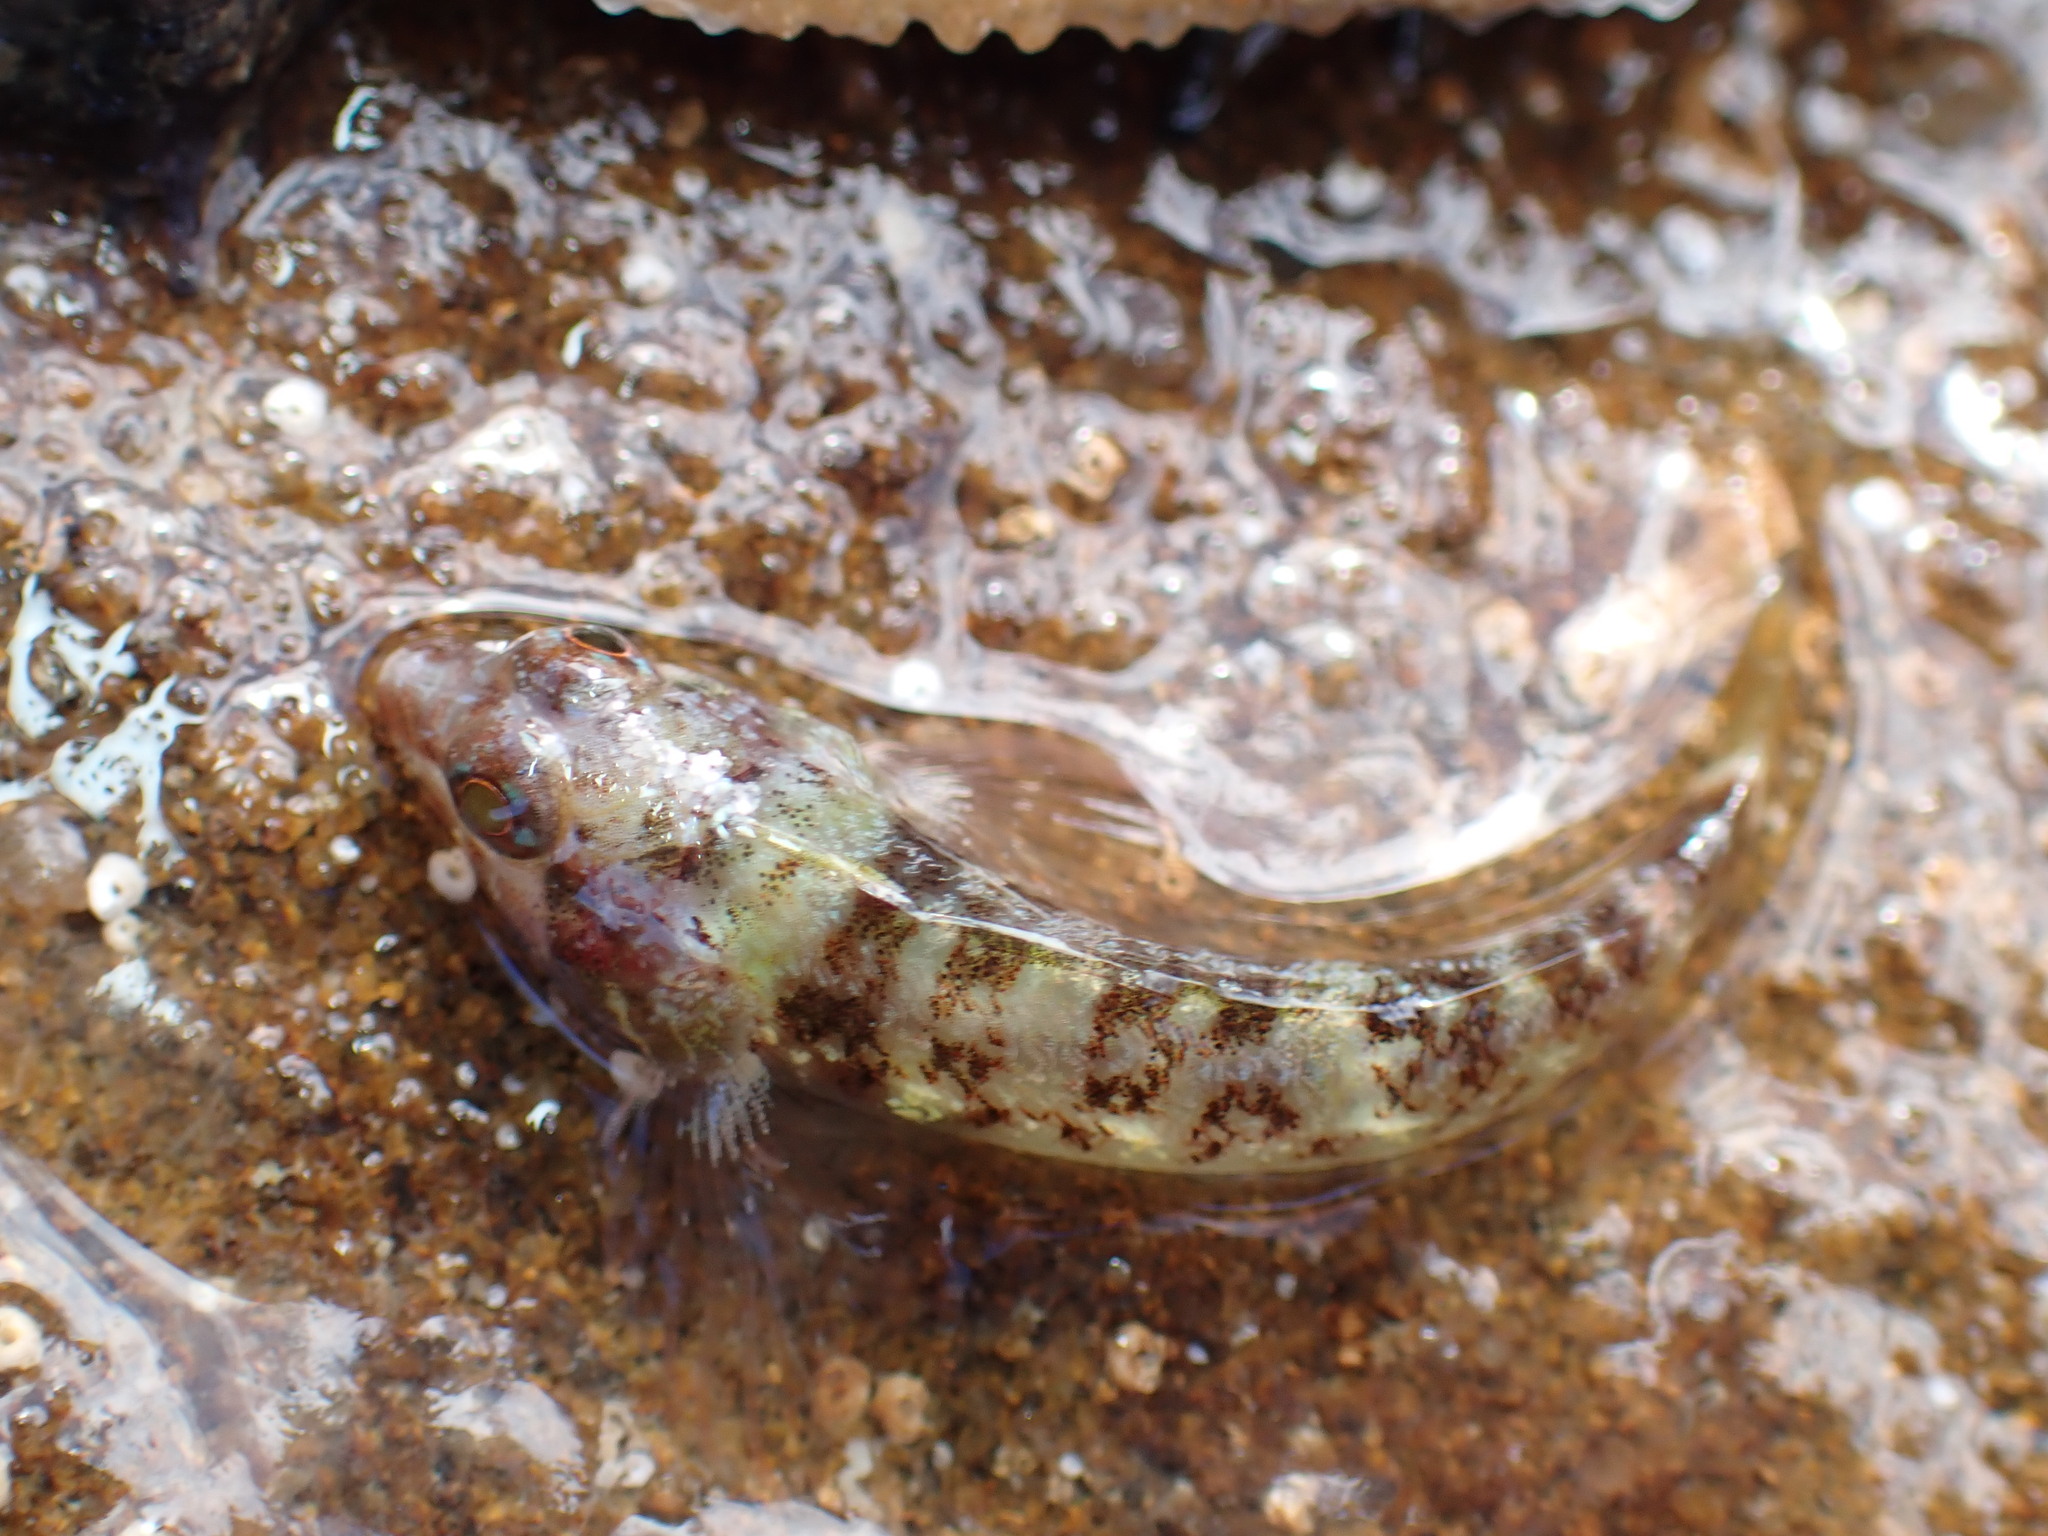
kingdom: Animalia
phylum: Chordata
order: Perciformes
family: Tripterygiidae
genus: Enneapterygius
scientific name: Enneapterygius atrogulare
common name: Blackthroat triplefin
